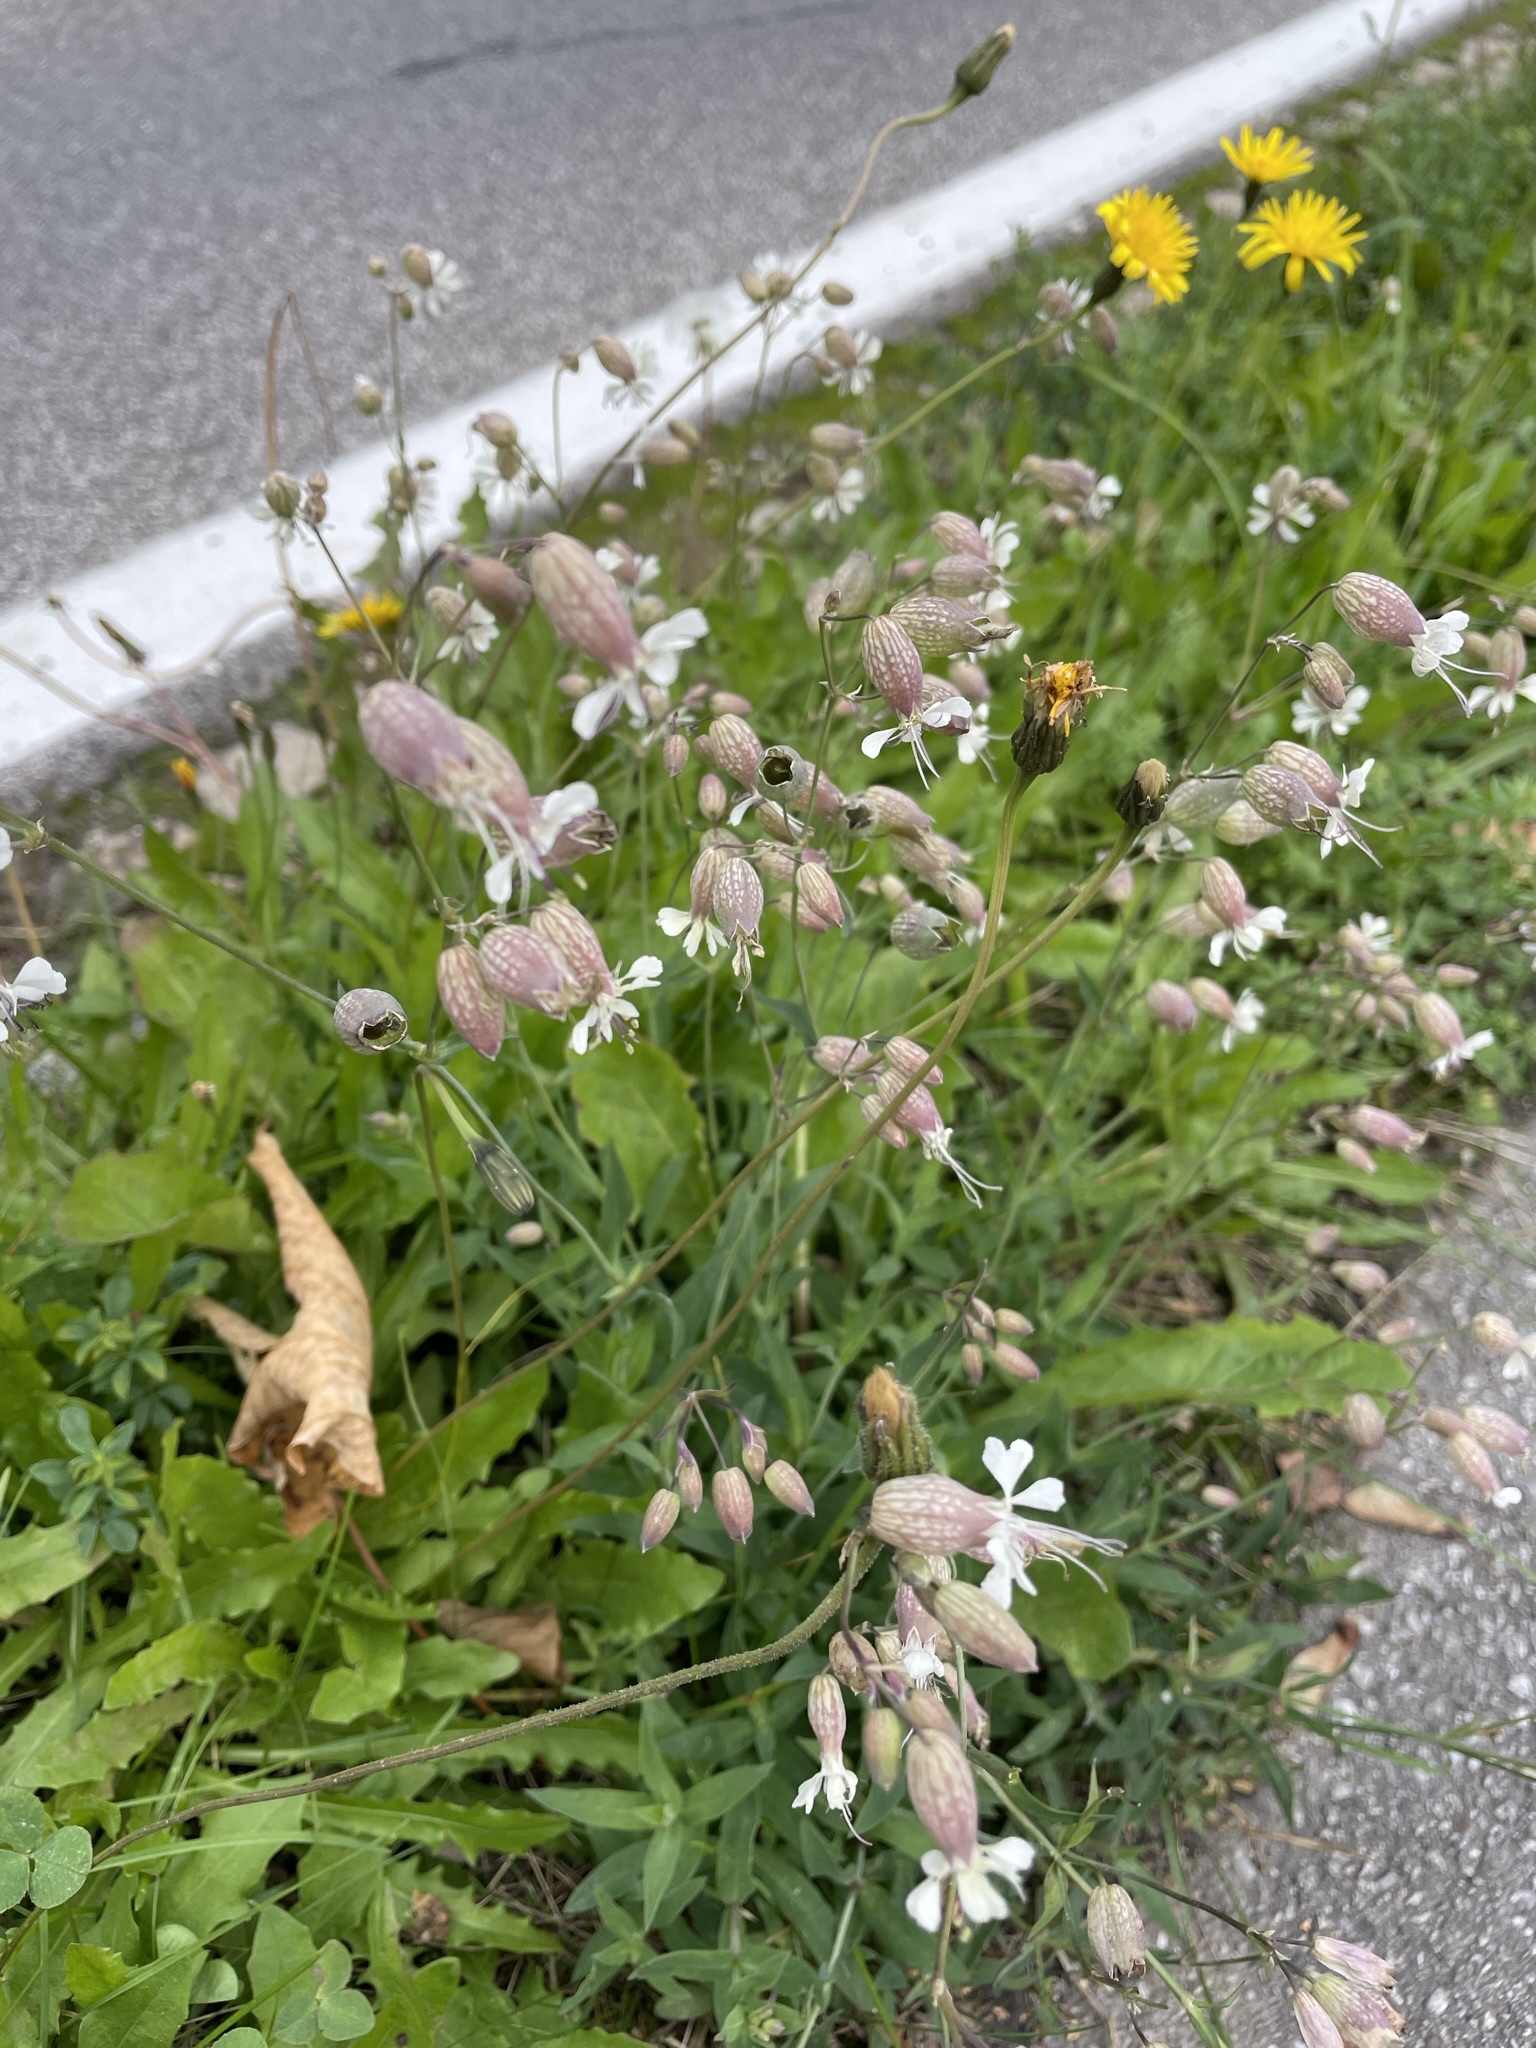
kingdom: Plantae
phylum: Tracheophyta
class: Magnoliopsida
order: Caryophyllales
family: Caryophyllaceae
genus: Silene
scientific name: Silene vulgaris
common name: Bladder campion
